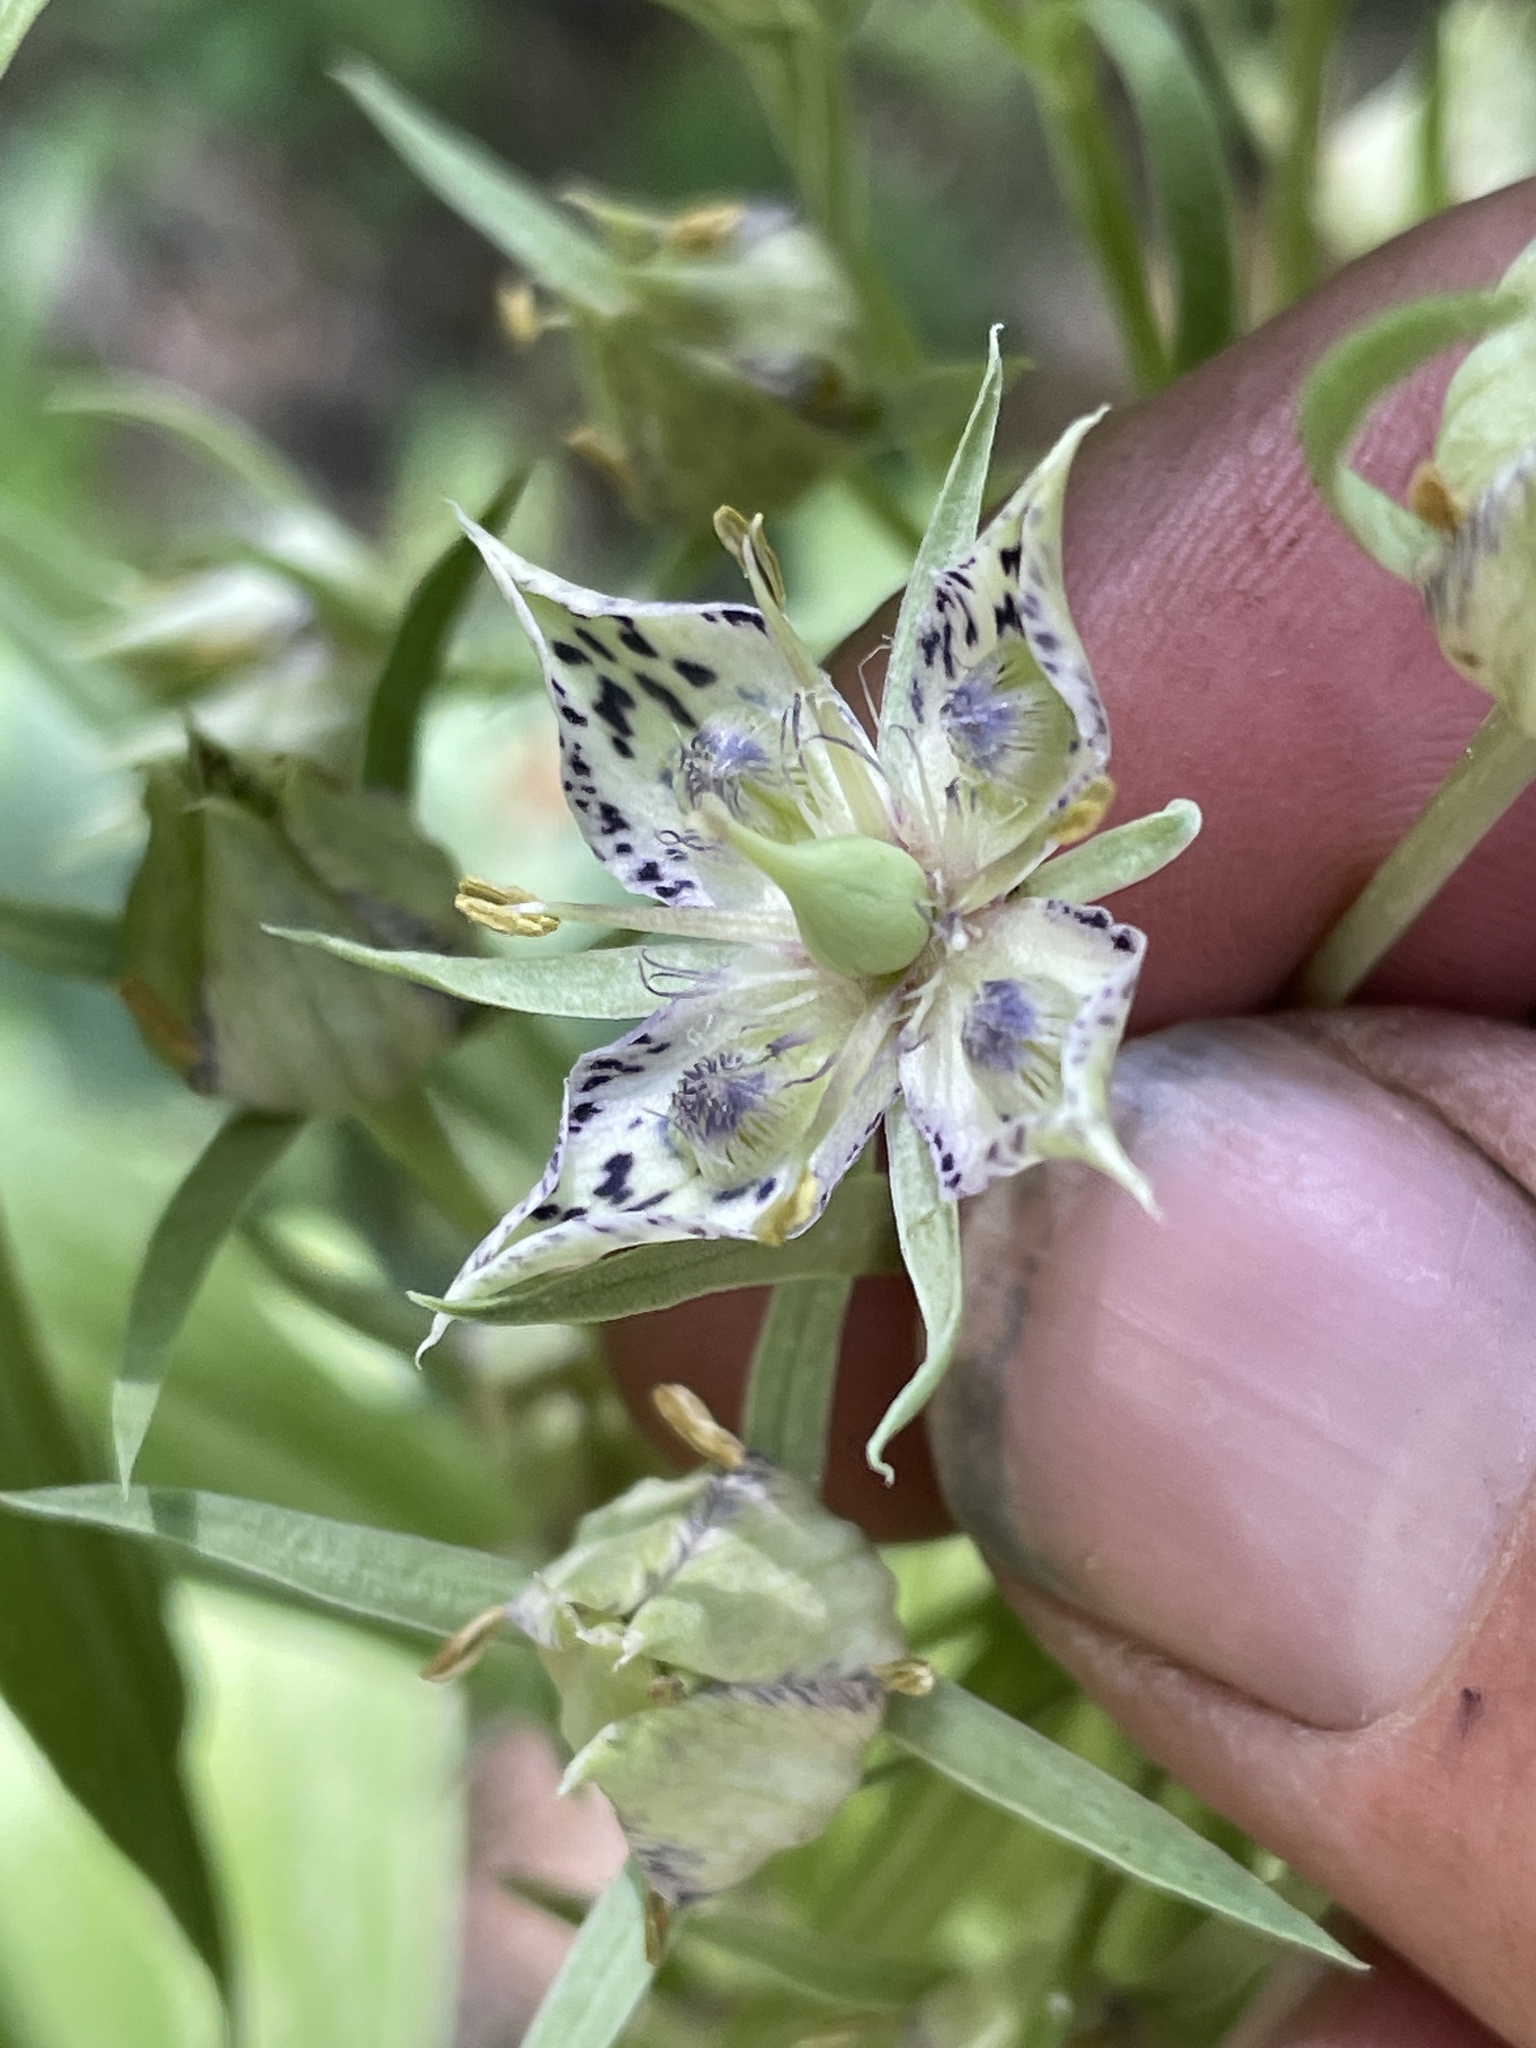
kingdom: Plantae
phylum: Tracheophyta
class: Magnoliopsida
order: Gentianales
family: Gentianaceae
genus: Frasera
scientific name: Frasera speciosa
